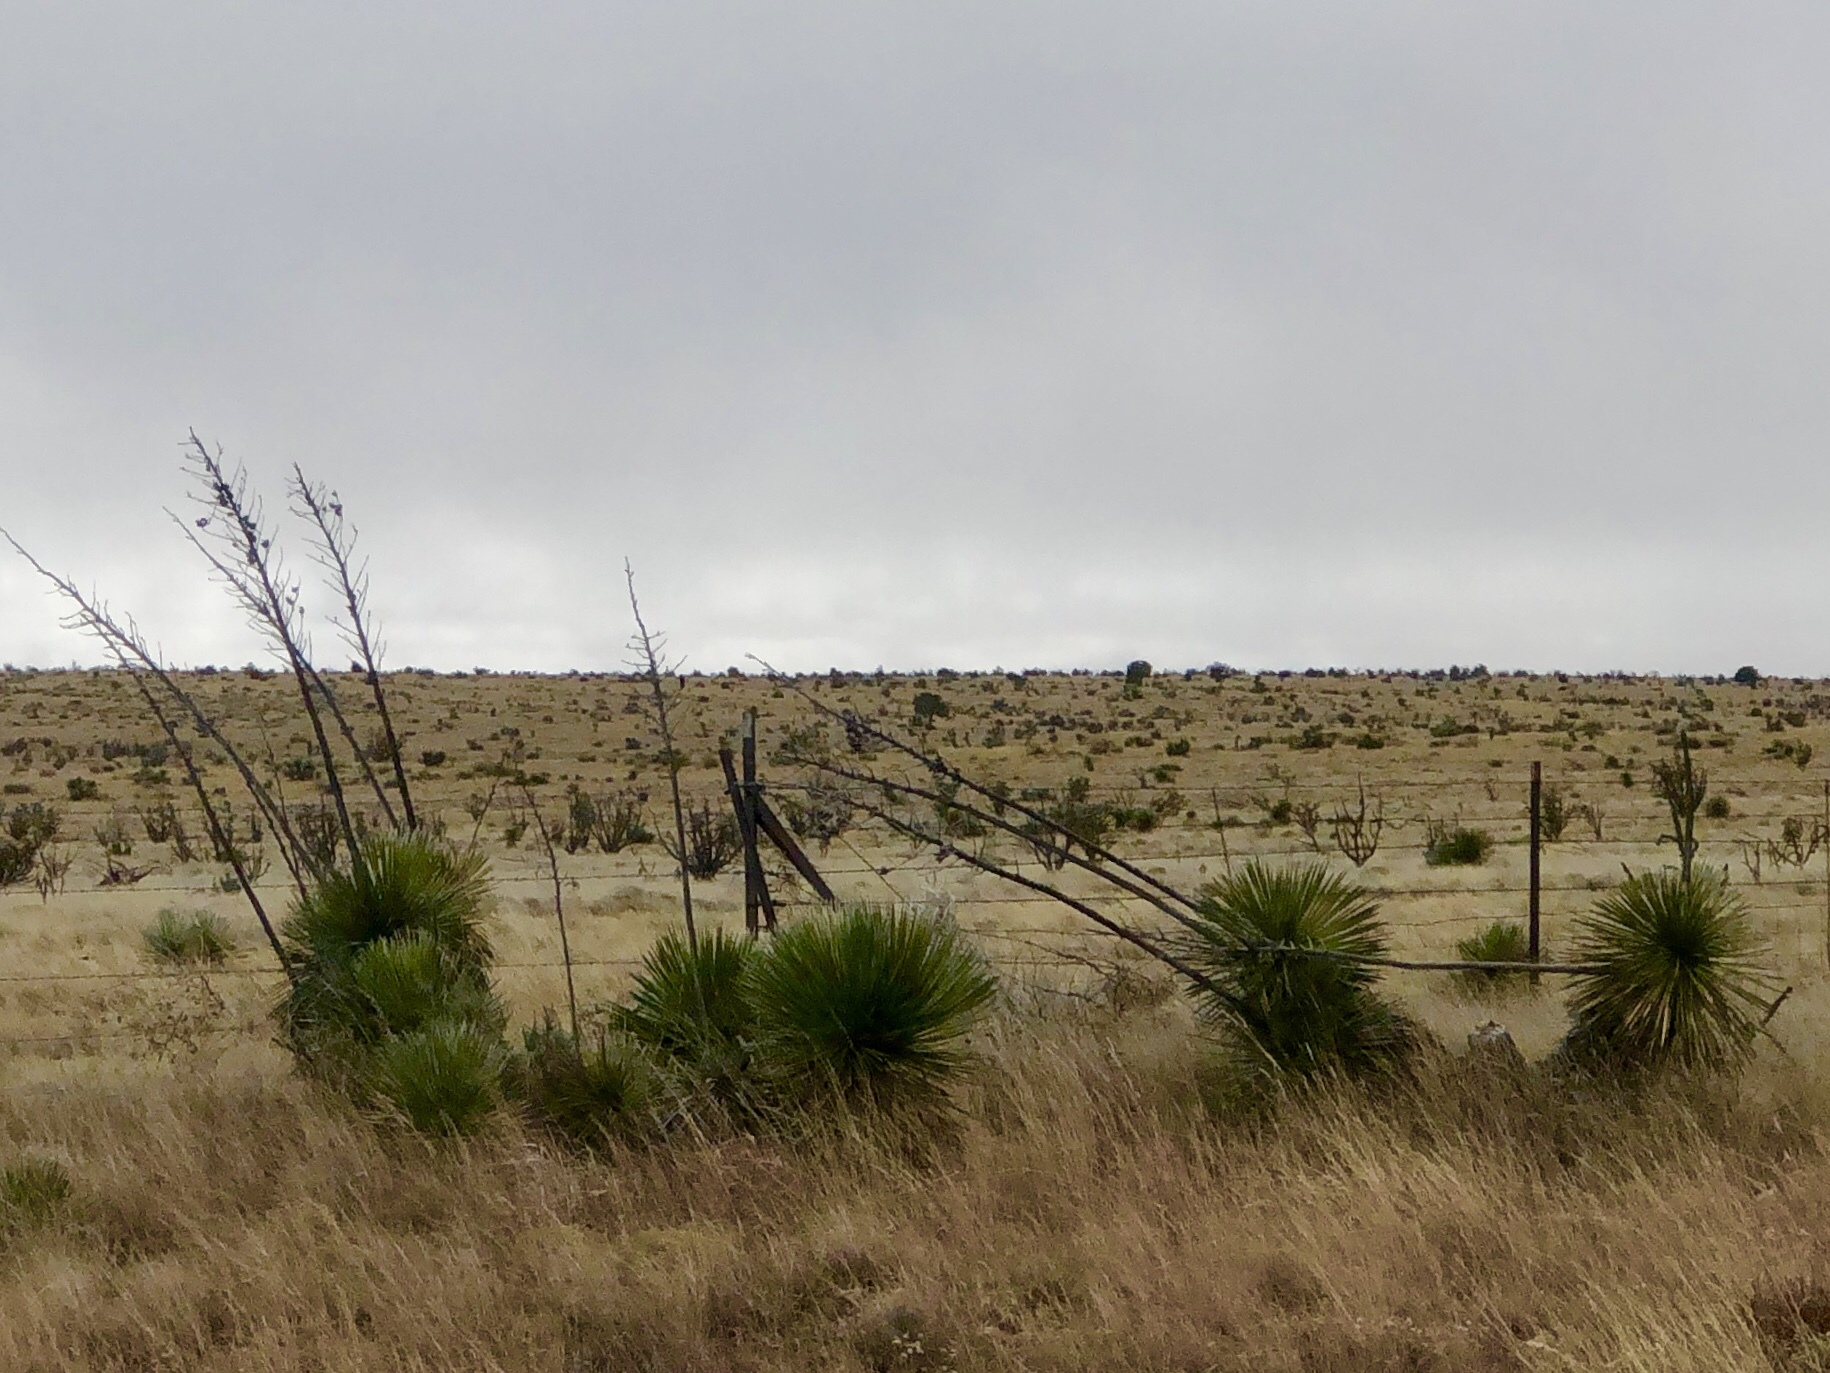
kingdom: Plantae
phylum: Tracheophyta
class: Liliopsida
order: Asparagales
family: Asparagaceae
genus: Yucca
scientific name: Yucca elata
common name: Palmella
